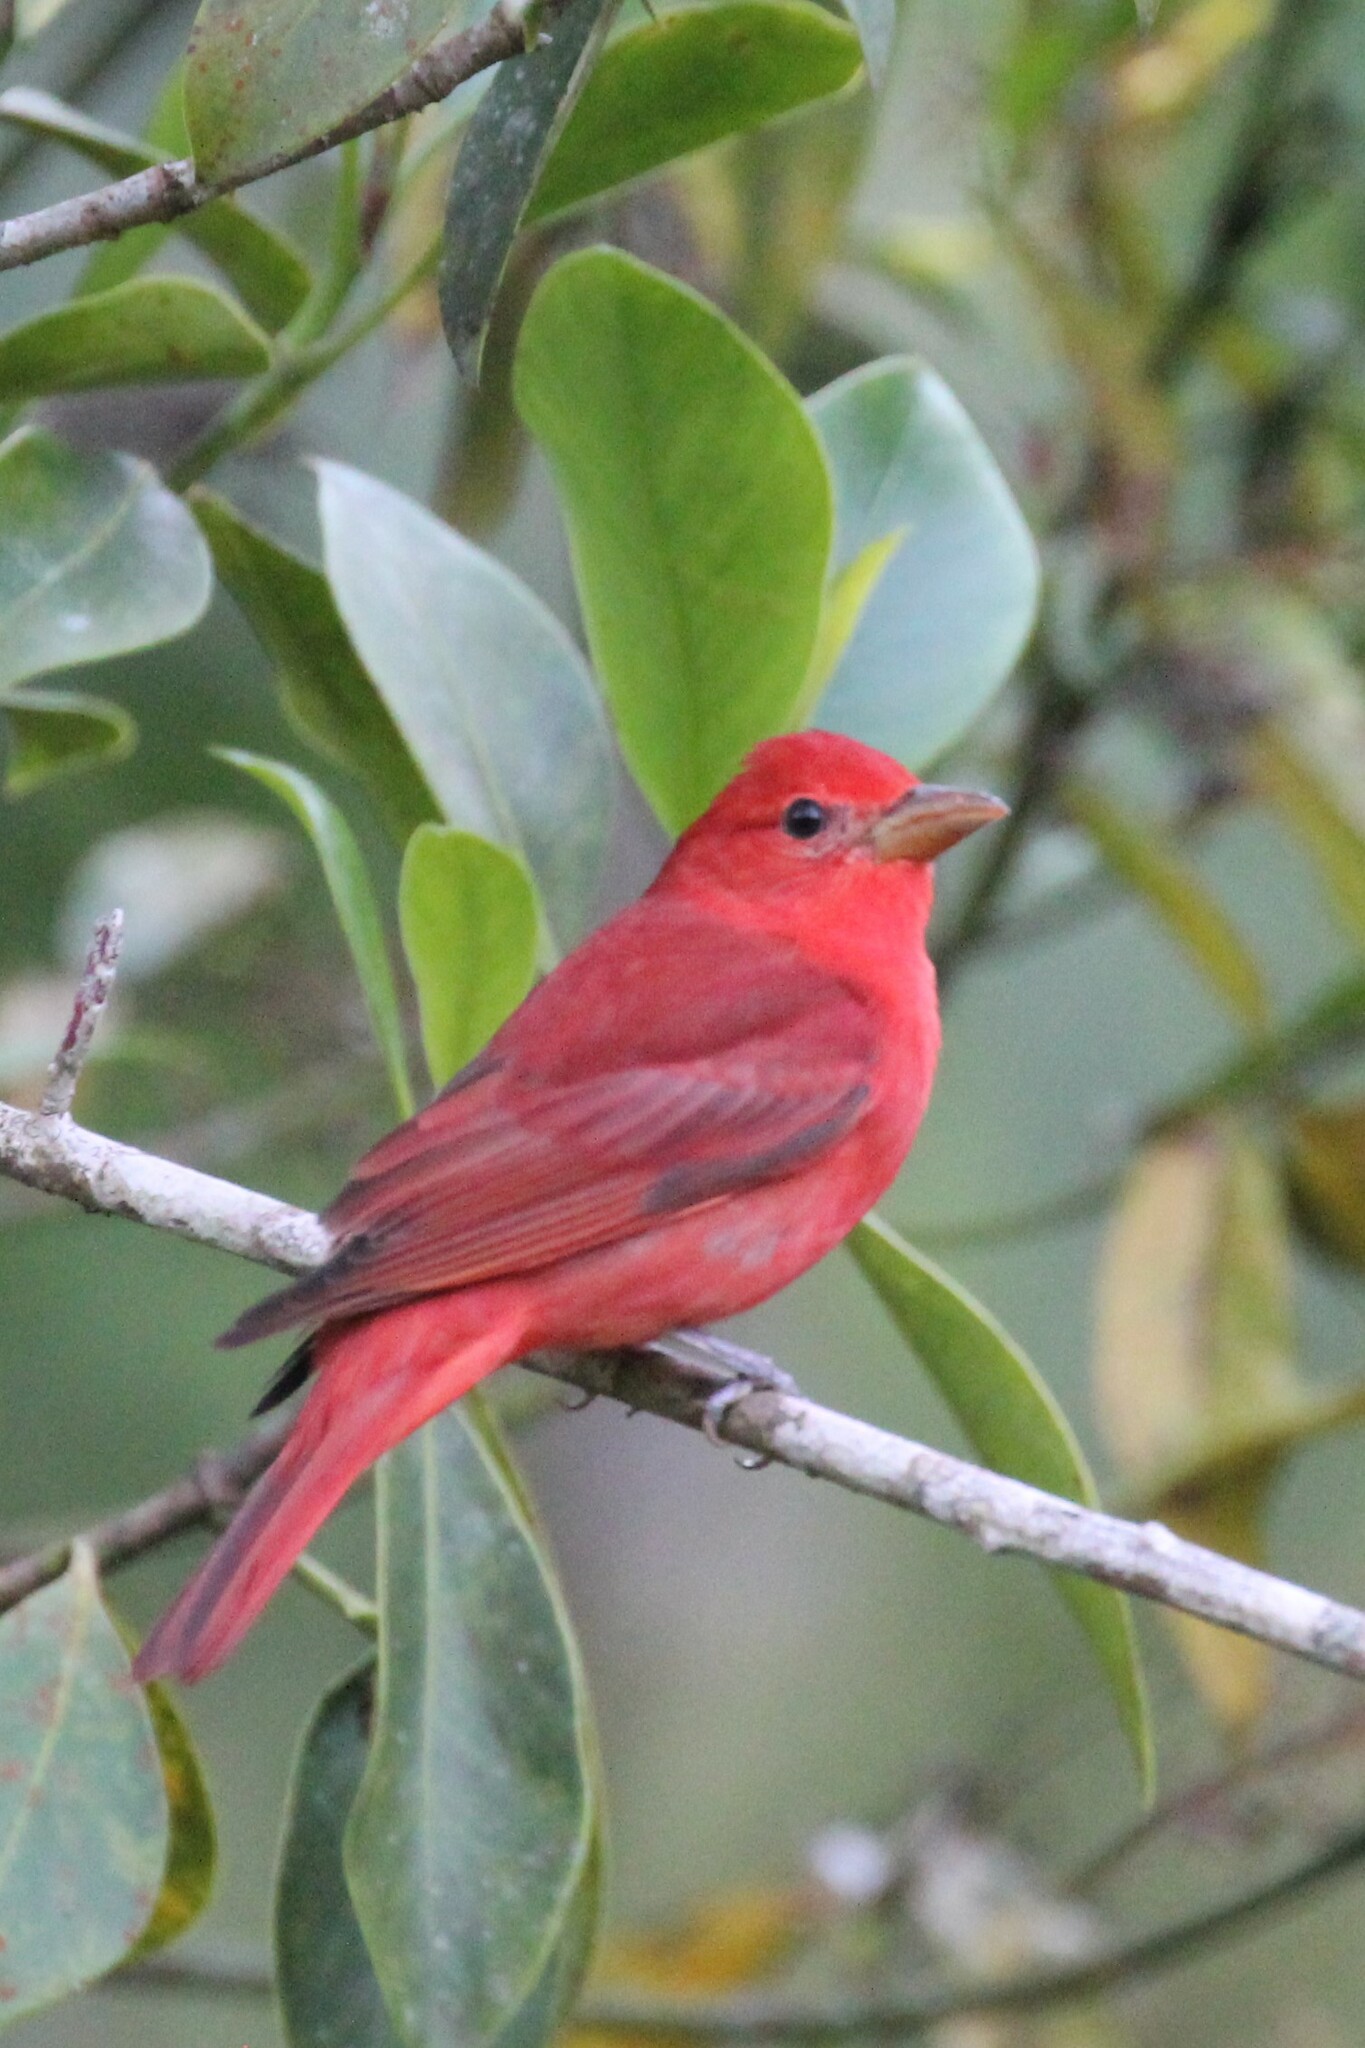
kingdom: Animalia
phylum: Chordata
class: Aves
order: Passeriformes
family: Cardinalidae
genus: Piranga
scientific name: Piranga rubra
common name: Summer tanager
